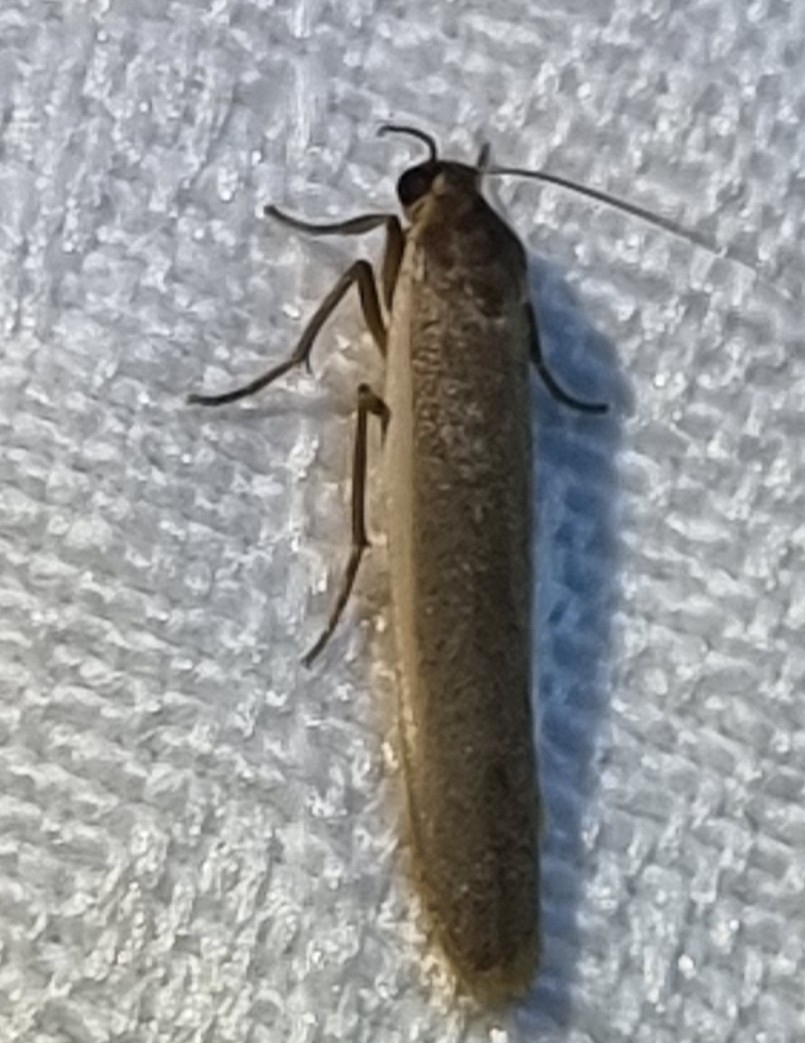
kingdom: Animalia
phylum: Arthropoda
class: Insecta
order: Lepidoptera
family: Erebidae
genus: Scoliacma
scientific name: Scoliacma nana
